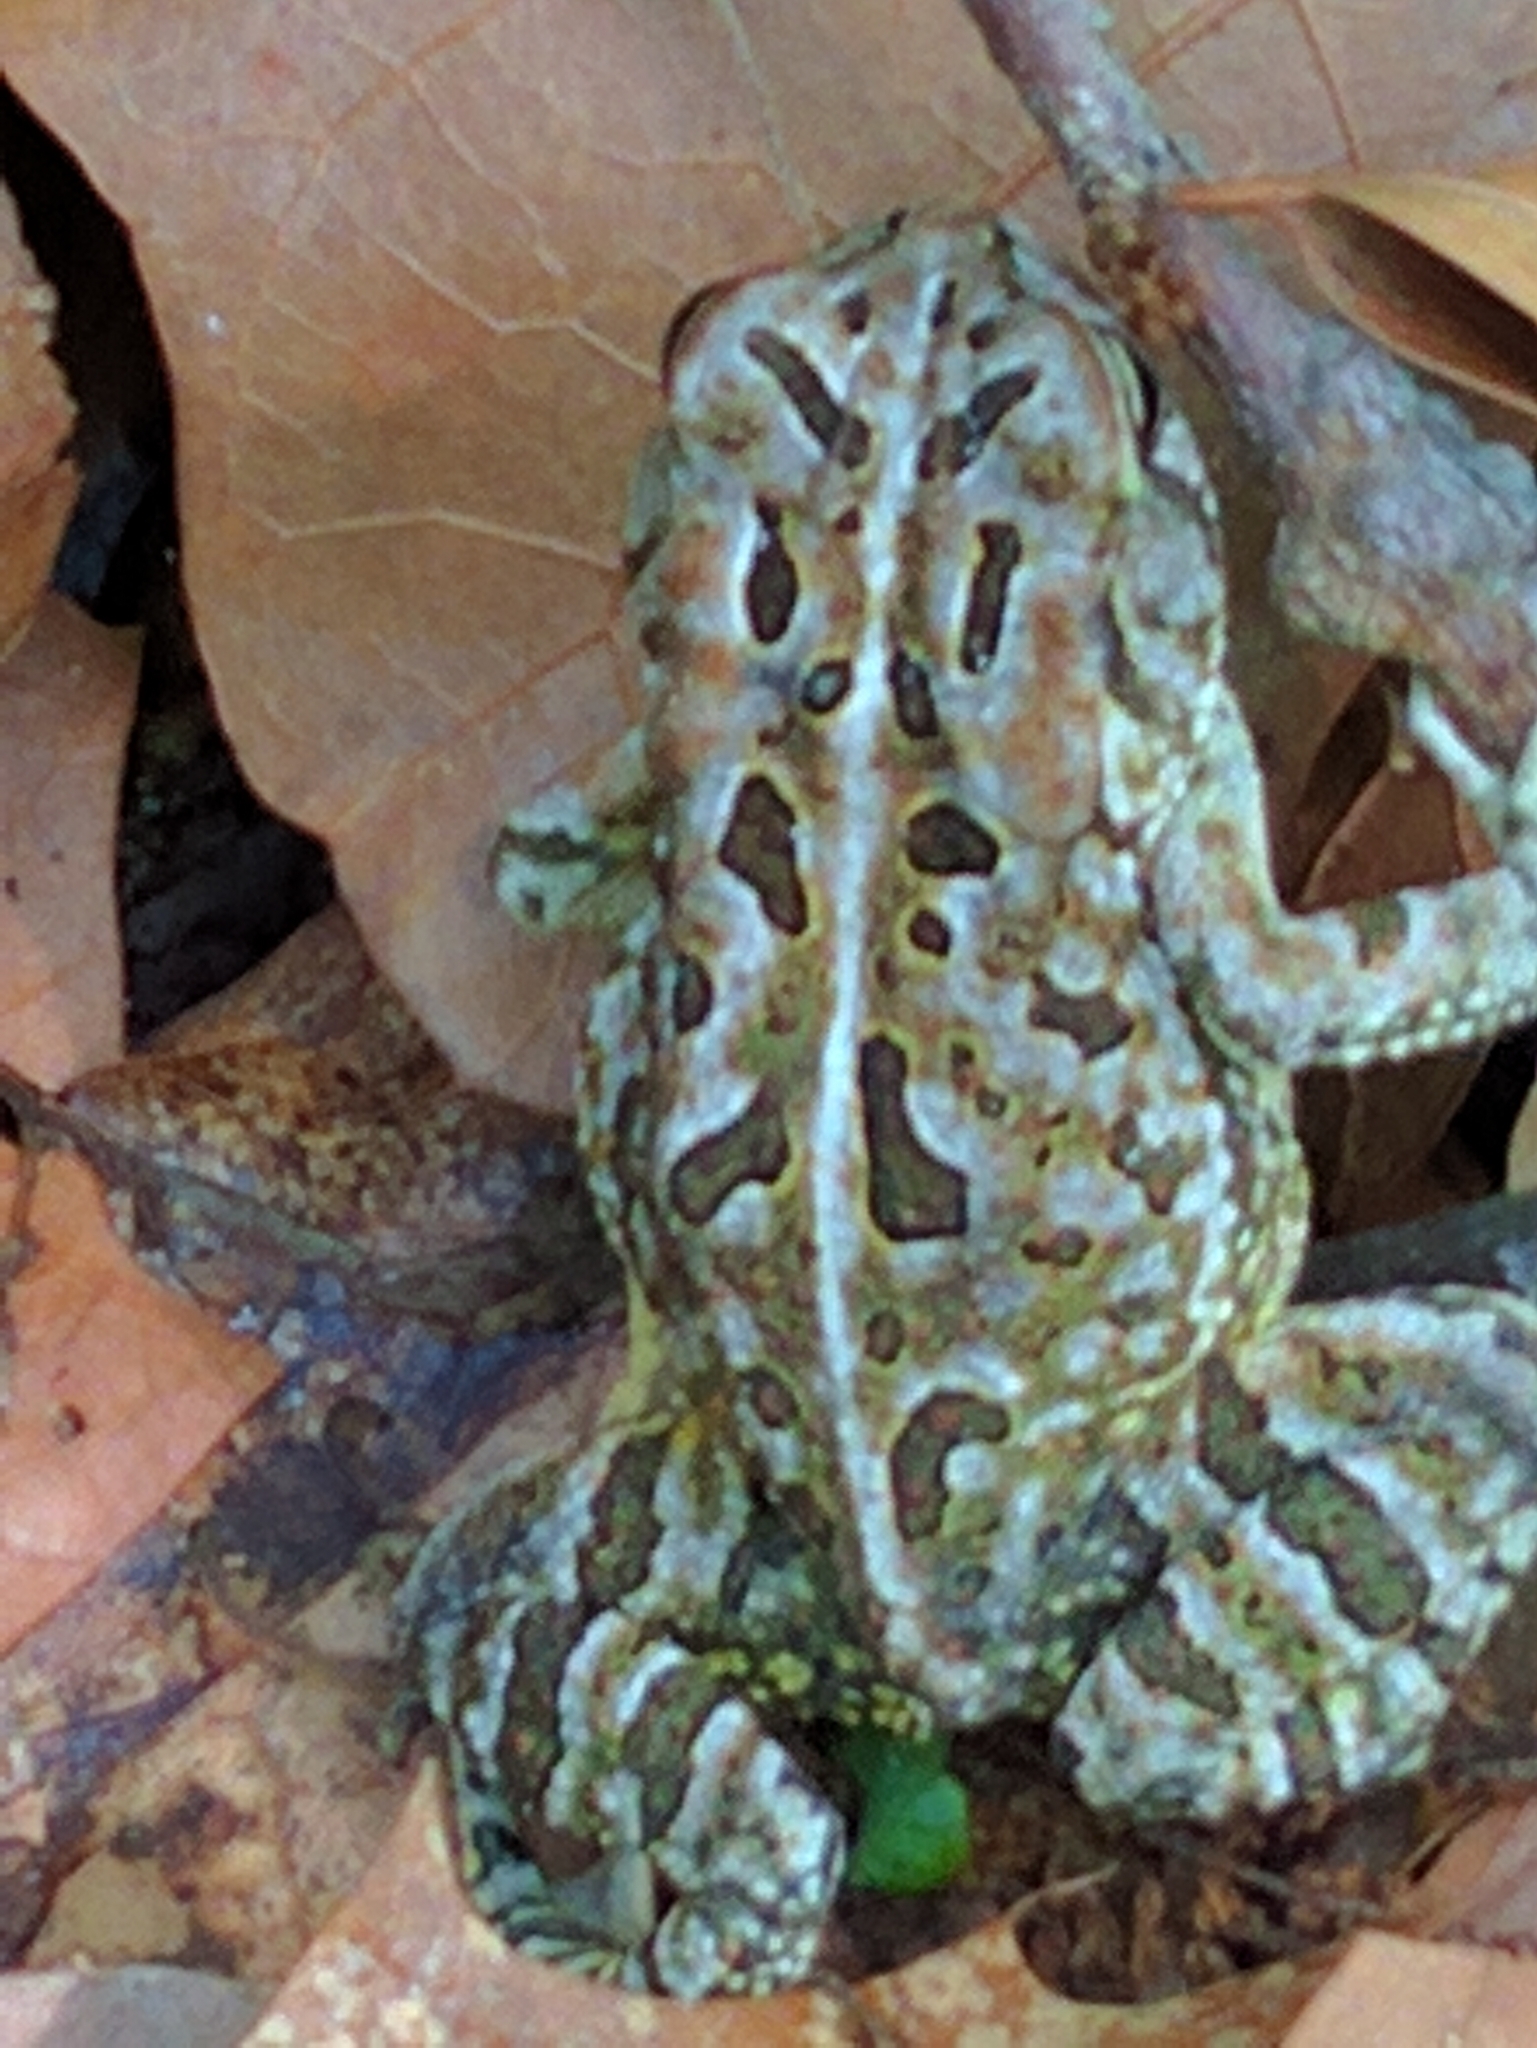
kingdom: Animalia
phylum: Chordata
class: Amphibia
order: Anura
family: Bufonidae
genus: Anaxyrus
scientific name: Anaxyrus fowleri
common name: Fowler's toad
